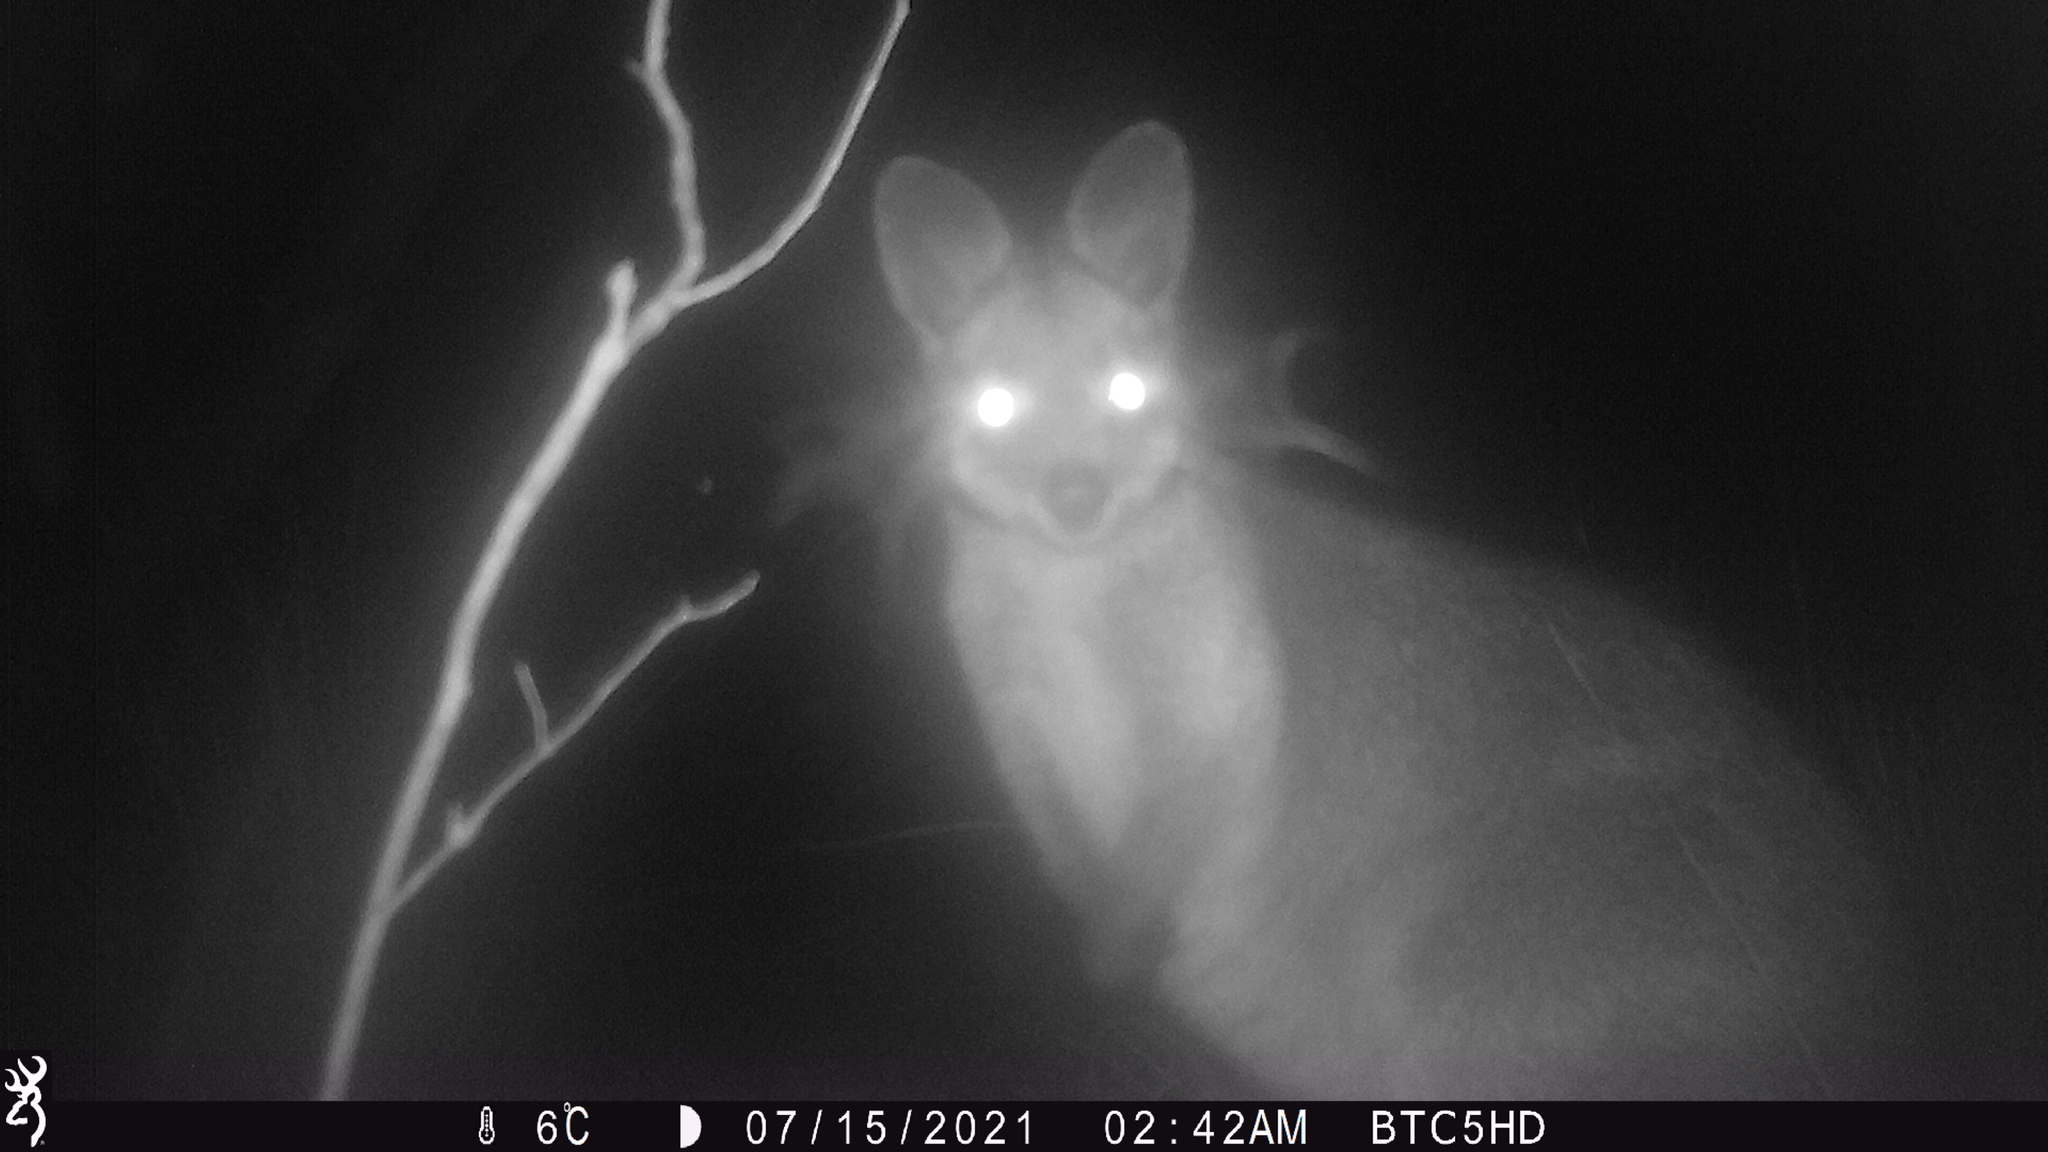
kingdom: Animalia
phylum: Chordata
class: Mammalia
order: Diprotodontia
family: Macropodidae
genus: Wallabia
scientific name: Wallabia bicolor
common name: Swamp wallaby
